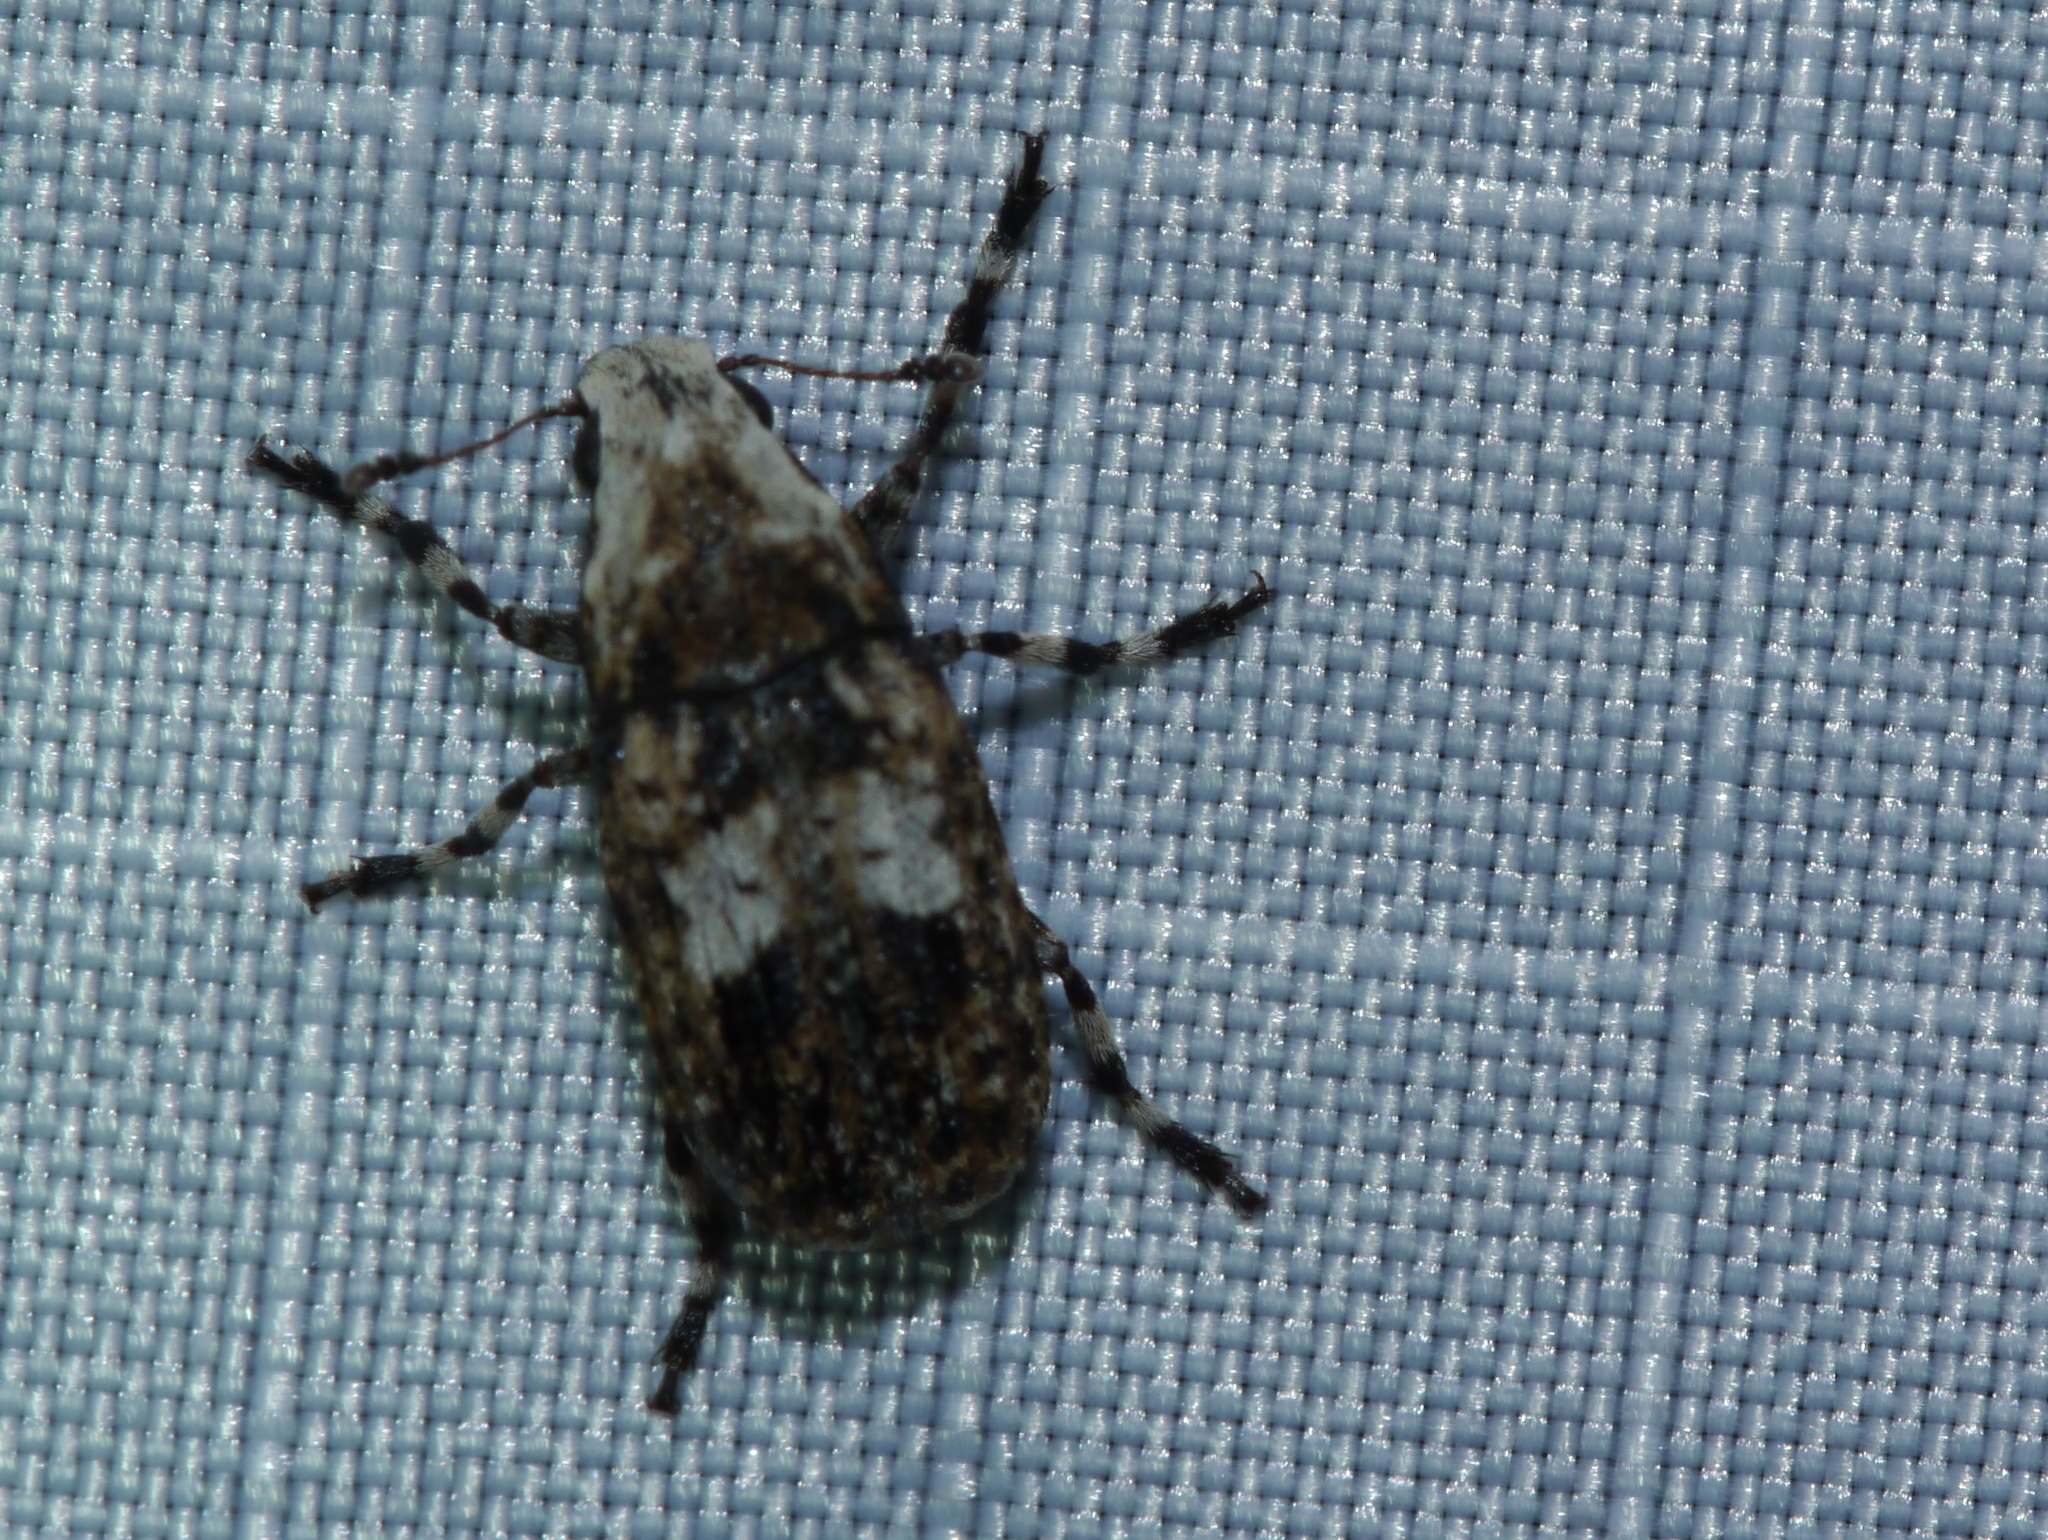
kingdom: Animalia
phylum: Arthropoda
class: Insecta
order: Coleoptera
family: Anthribidae
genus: Euparius
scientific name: Euparius marmoreus
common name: Marbled fungus weevil
